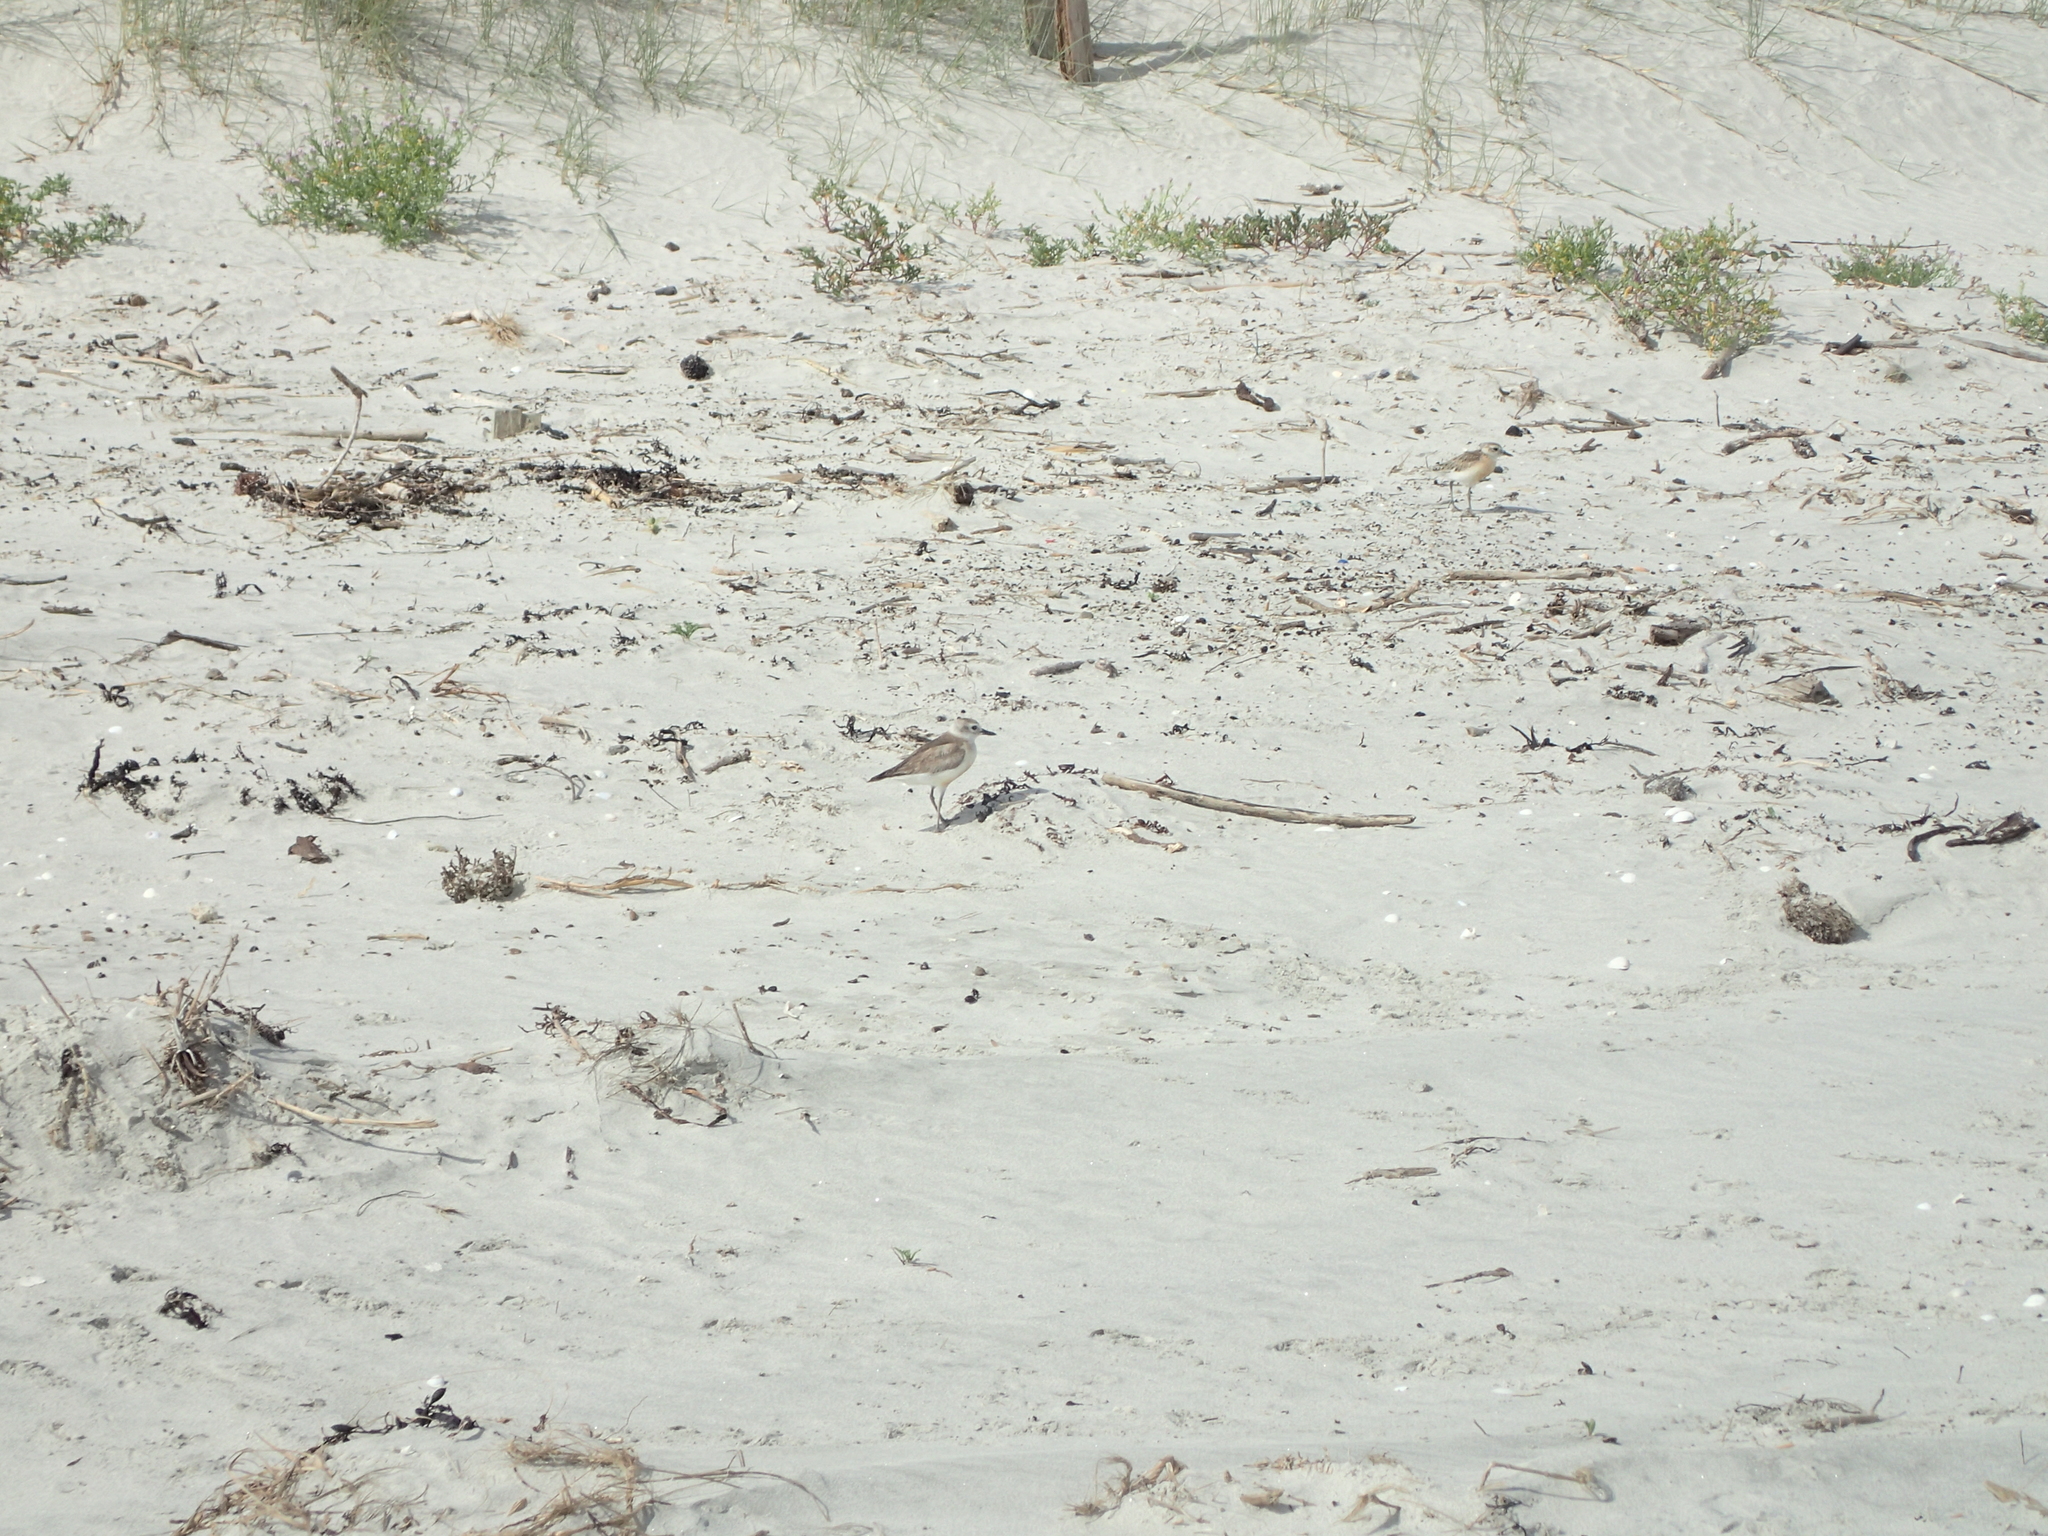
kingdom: Animalia
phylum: Chordata
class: Aves
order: Charadriiformes
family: Charadriidae
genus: Anarhynchus
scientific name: Anarhynchus
